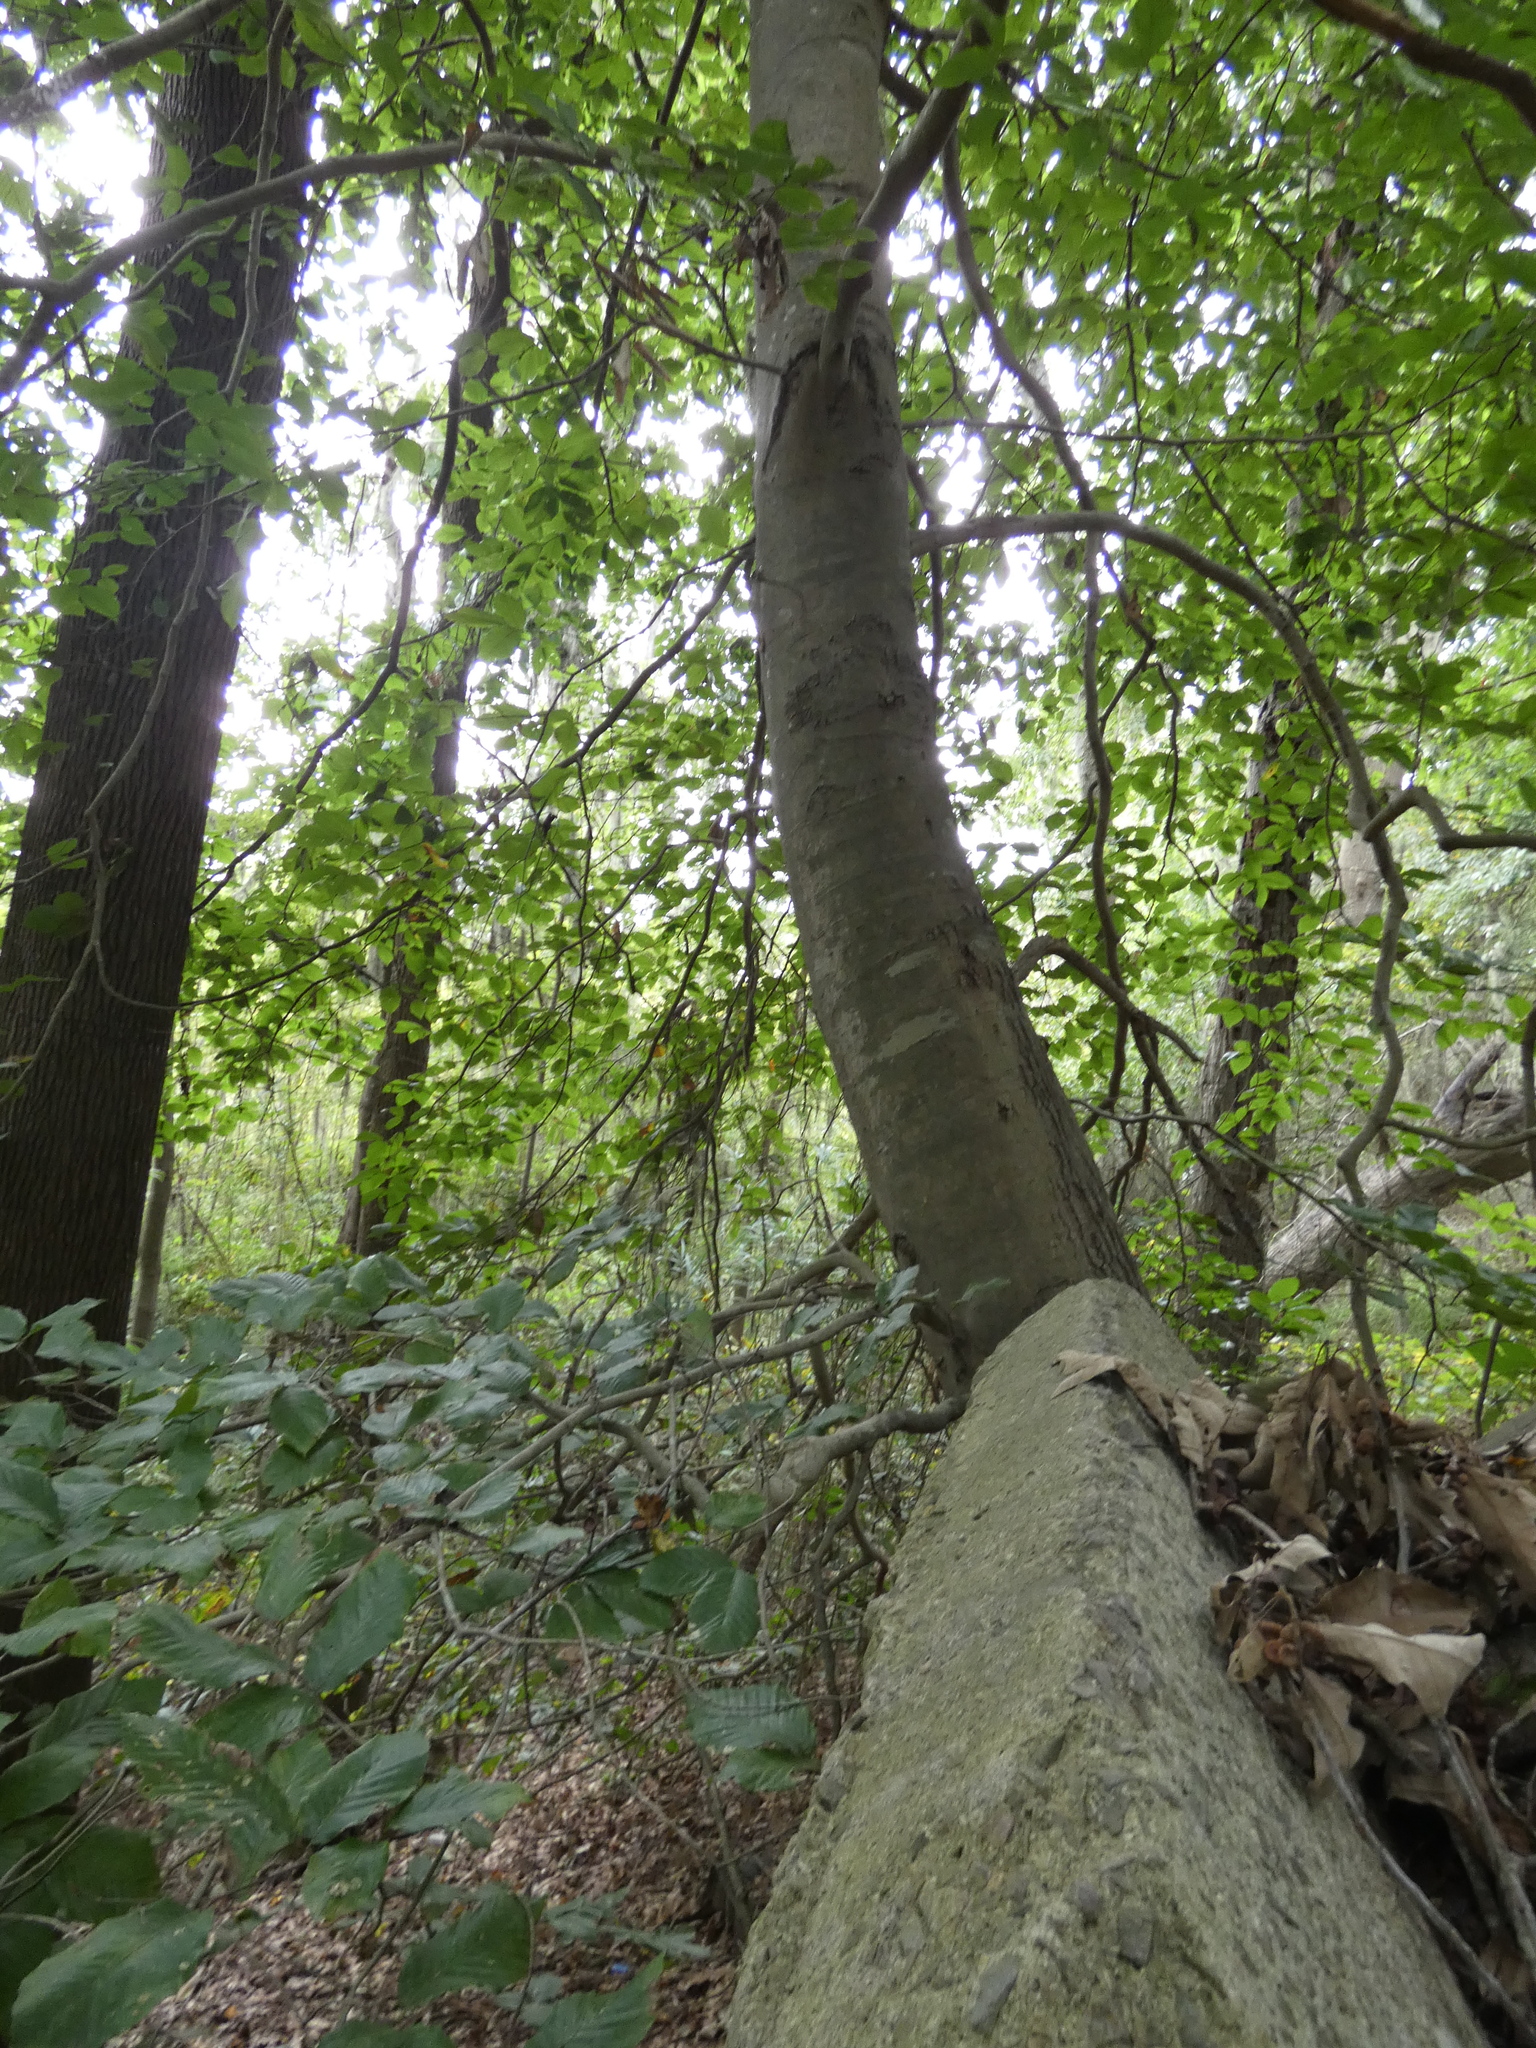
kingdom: Plantae
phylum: Tracheophyta
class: Magnoliopsida
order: Fagales
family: Fagaceae
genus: Fagus
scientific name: Fagus grandifolia
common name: American beech
